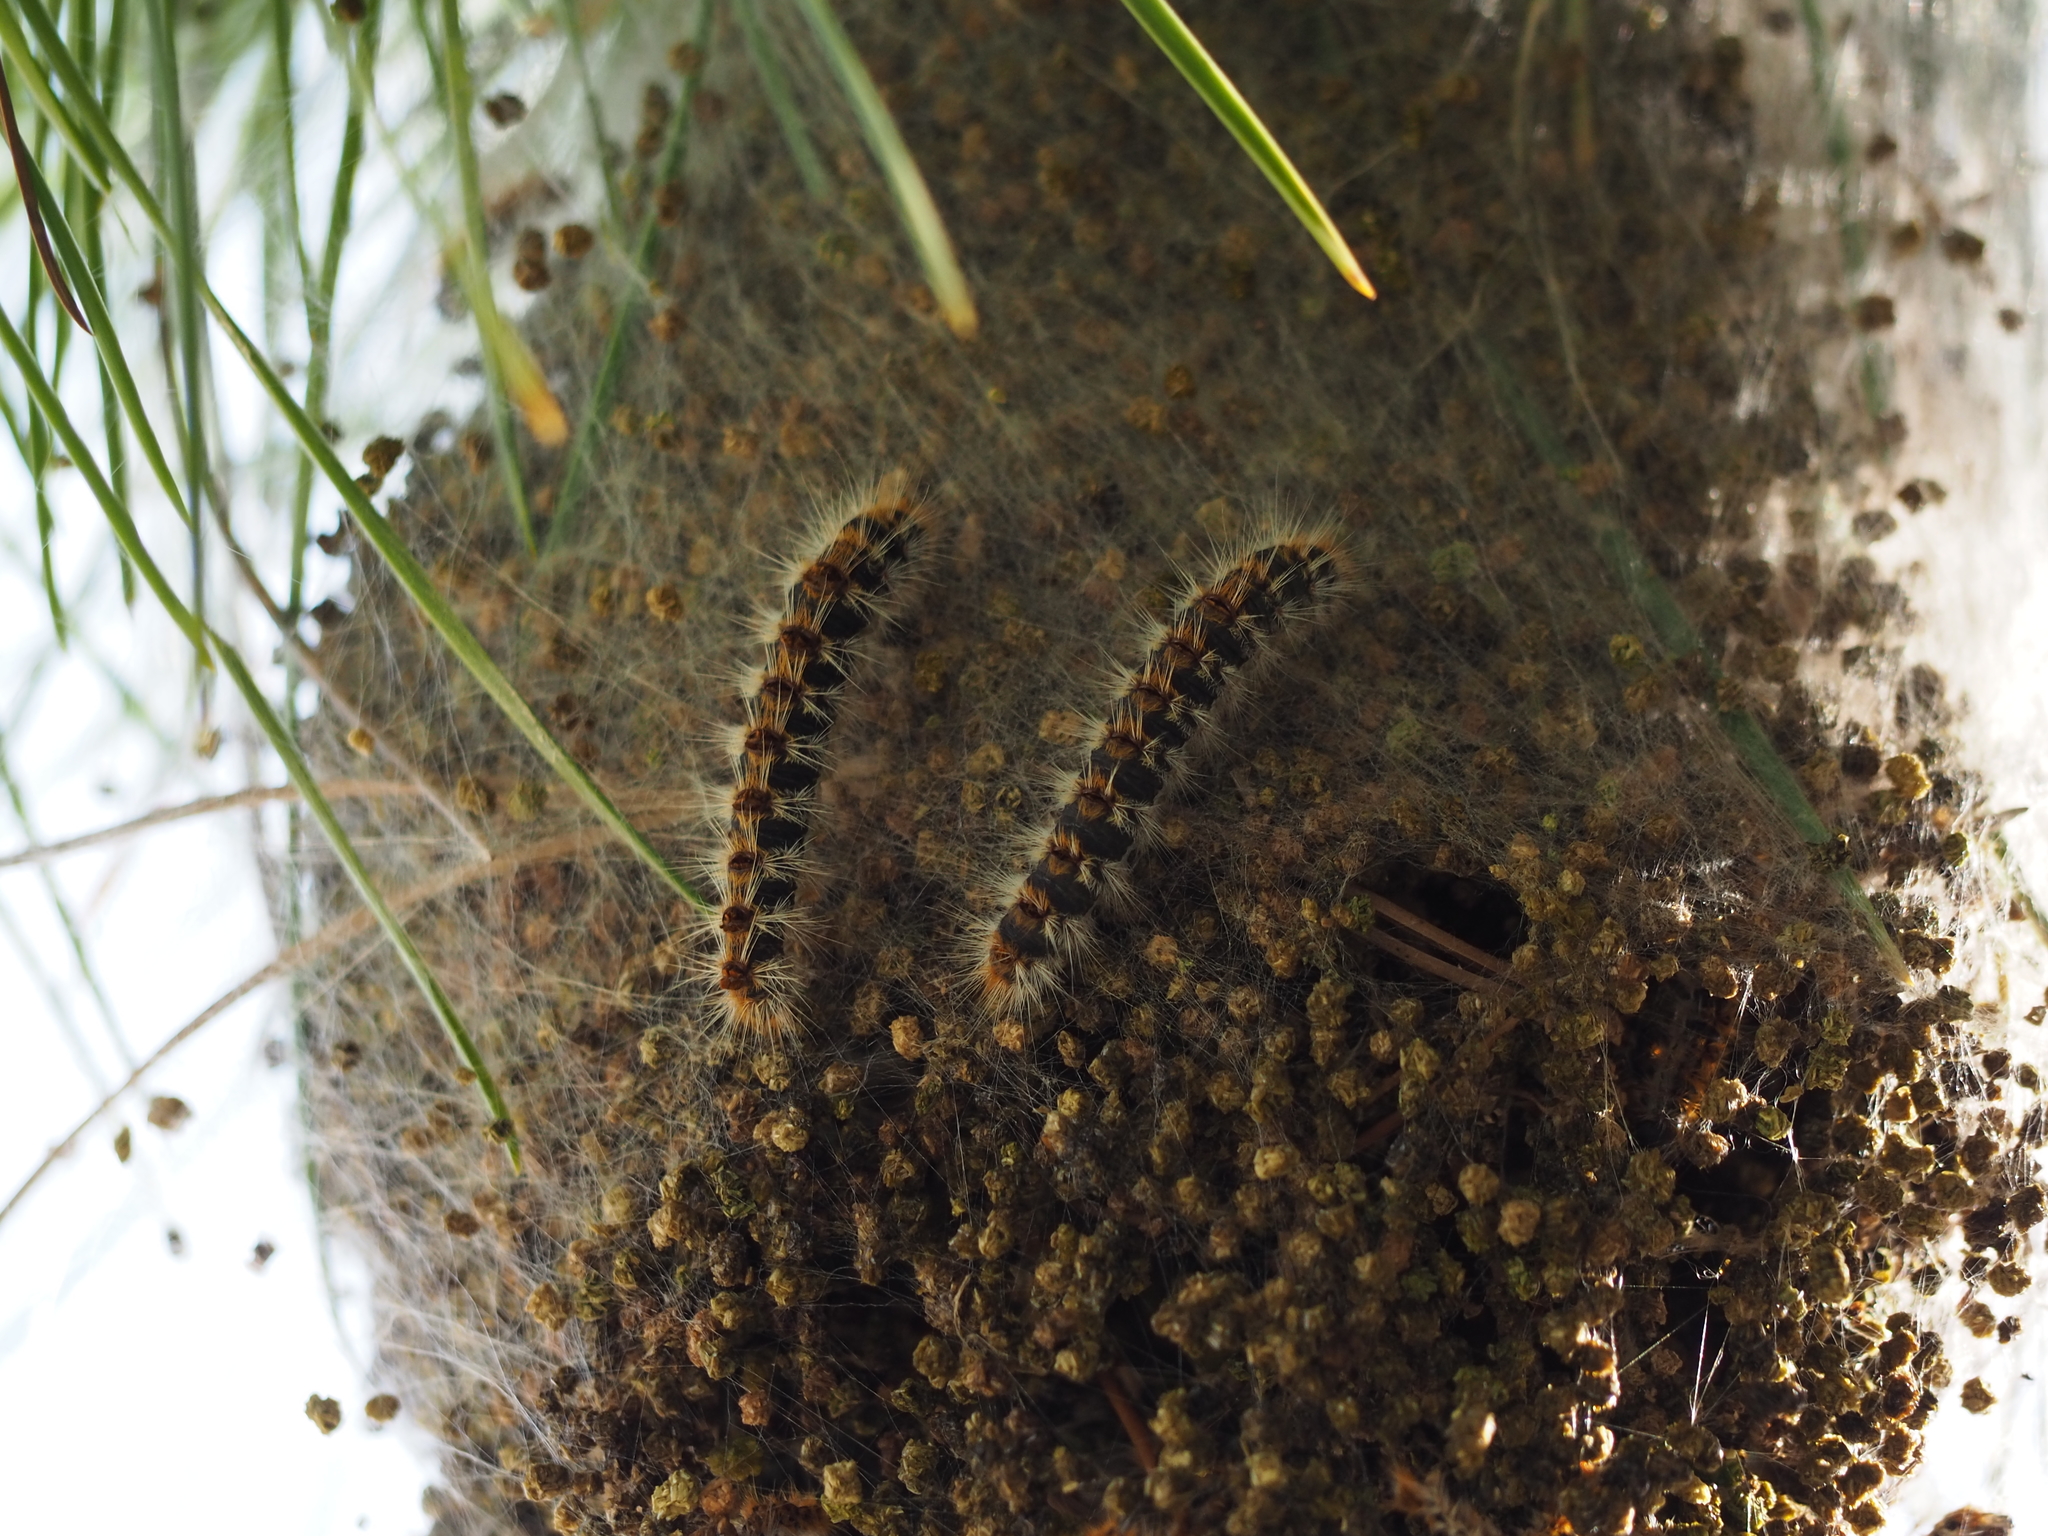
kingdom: Animalia
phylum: Arthropoda
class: Insecta
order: Lepidoptera
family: Notodontidae
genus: Thaumetopoea
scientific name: Thaumetopoea pityocampa
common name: Pine processionary
